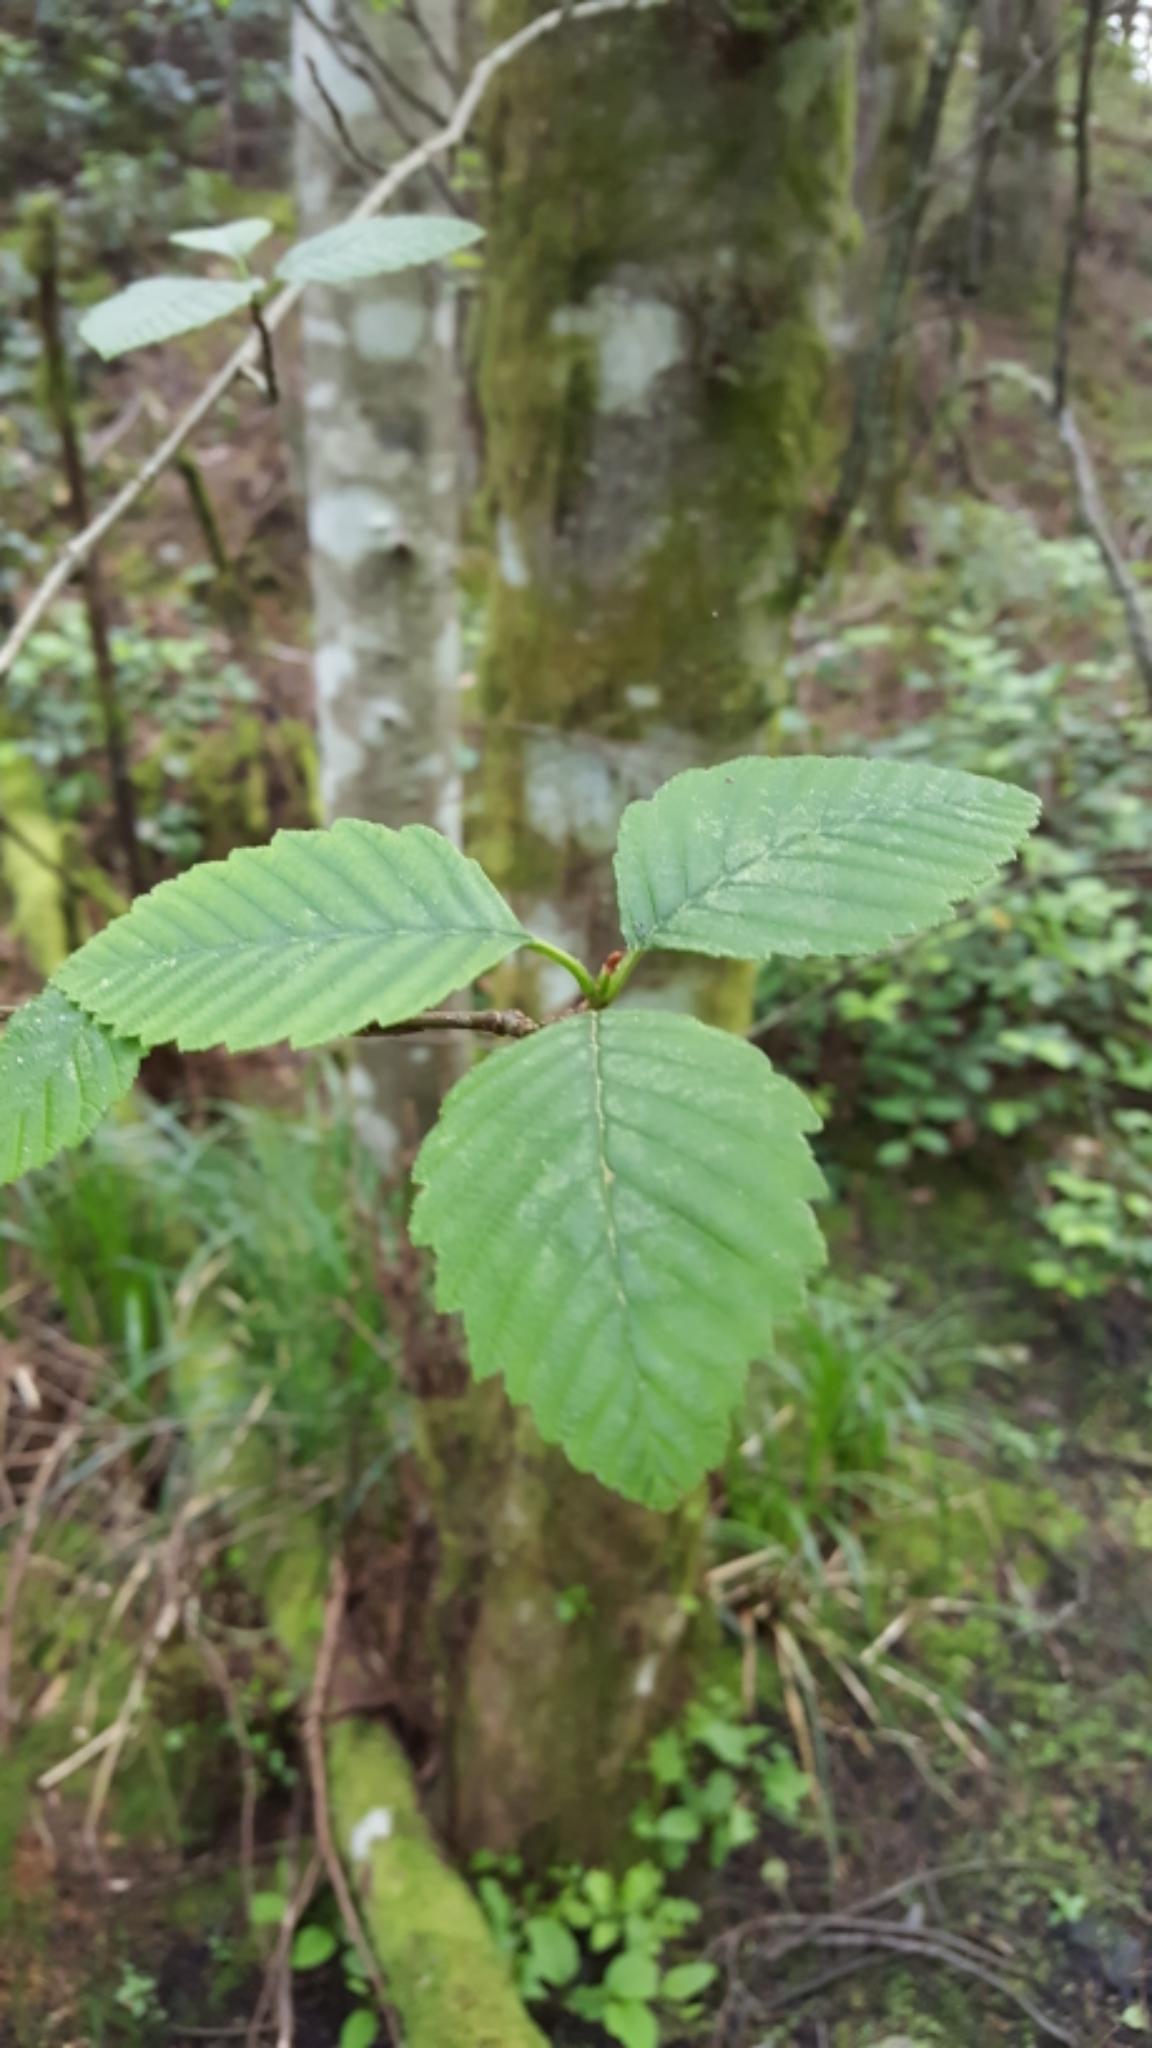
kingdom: Plantae
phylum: Tracheophyta
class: Magnoliopsida
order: Fagales
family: Betulaceae
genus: Alnus
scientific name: Alnus rubra
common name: Red alder
